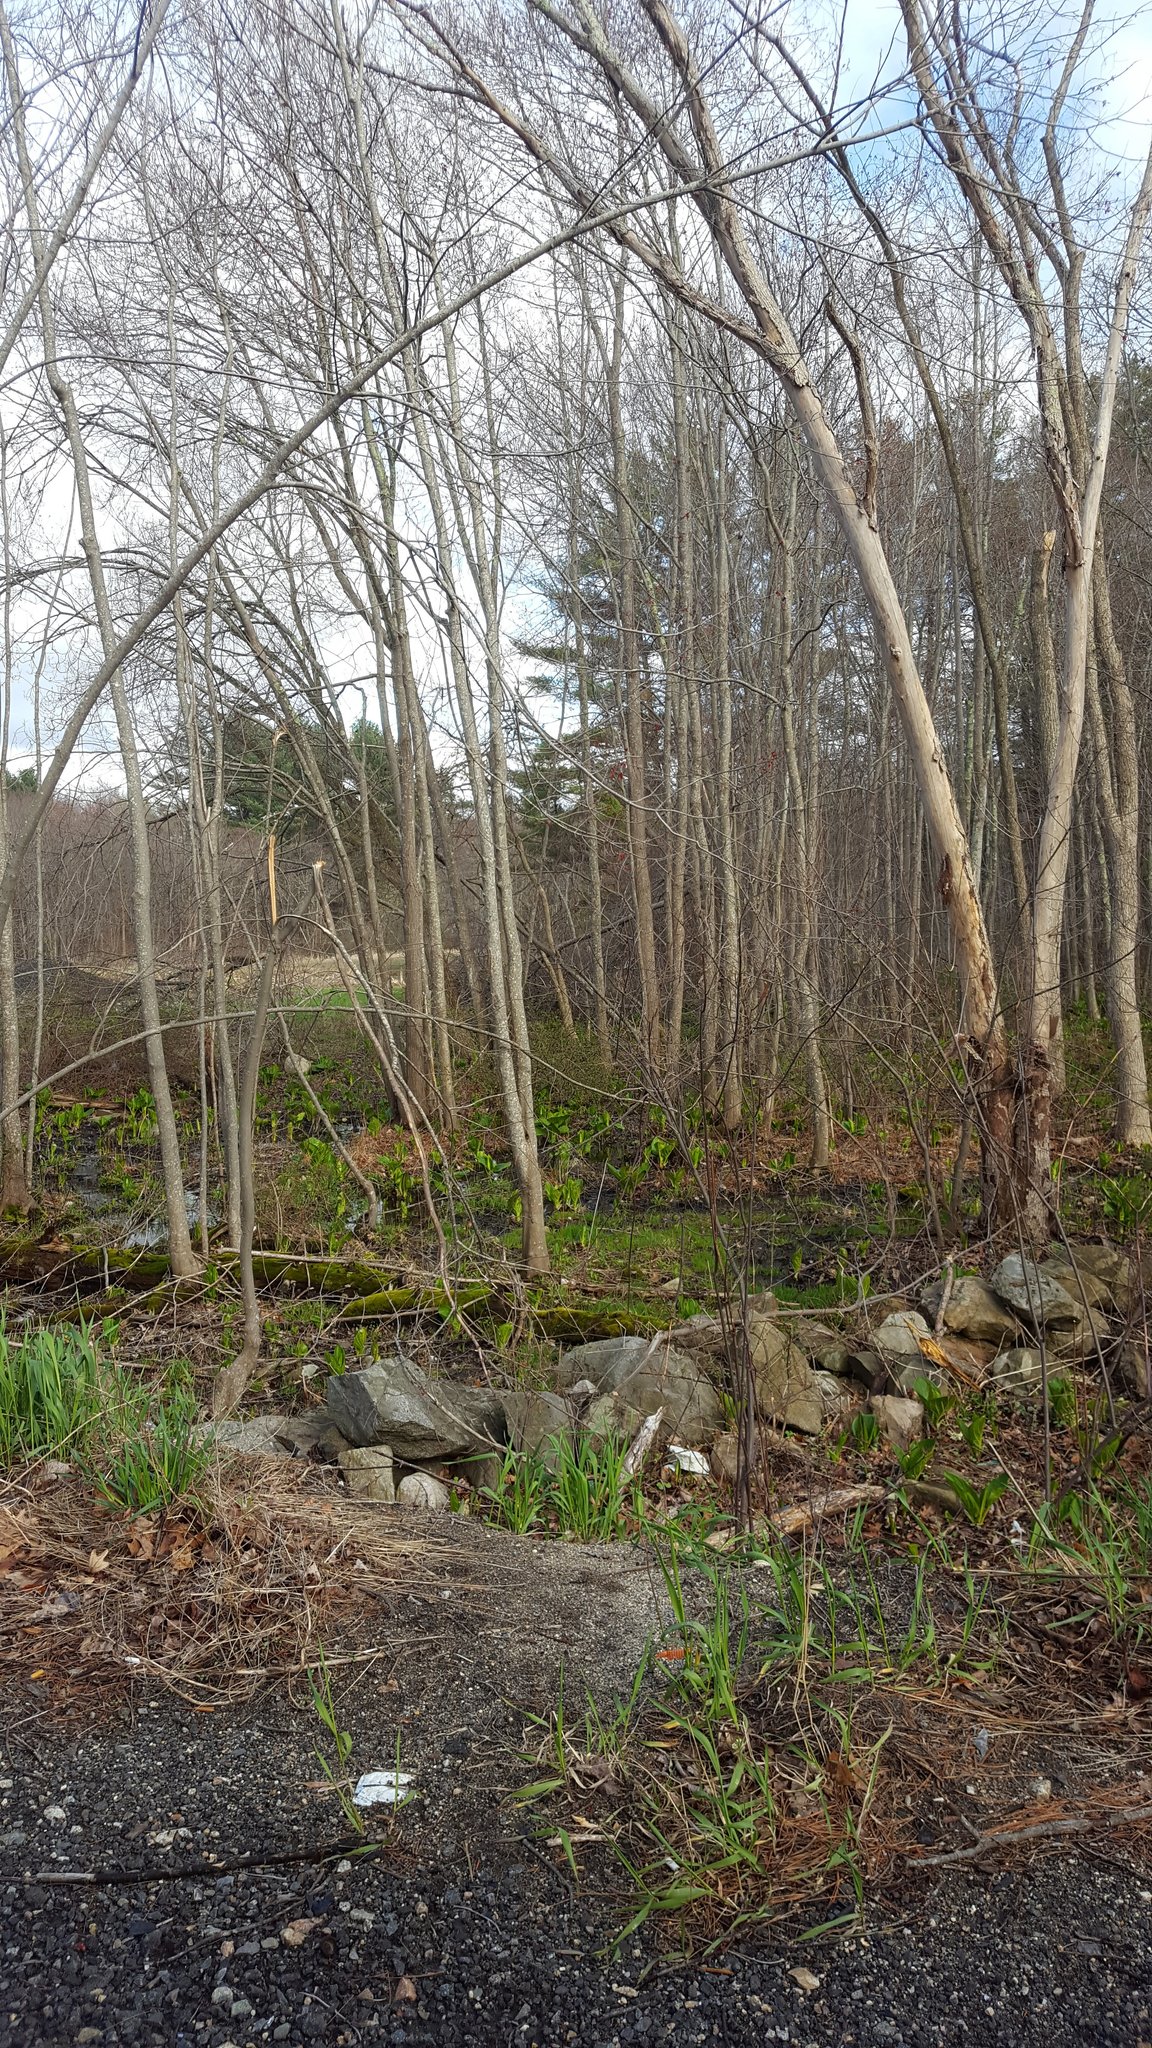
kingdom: Plantae
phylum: Tracheophyta
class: Liliopsida
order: Alismatales
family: Araceae
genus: Symplocarpus
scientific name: Symplocarpus foetidus
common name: Eastern skunk cabbage
